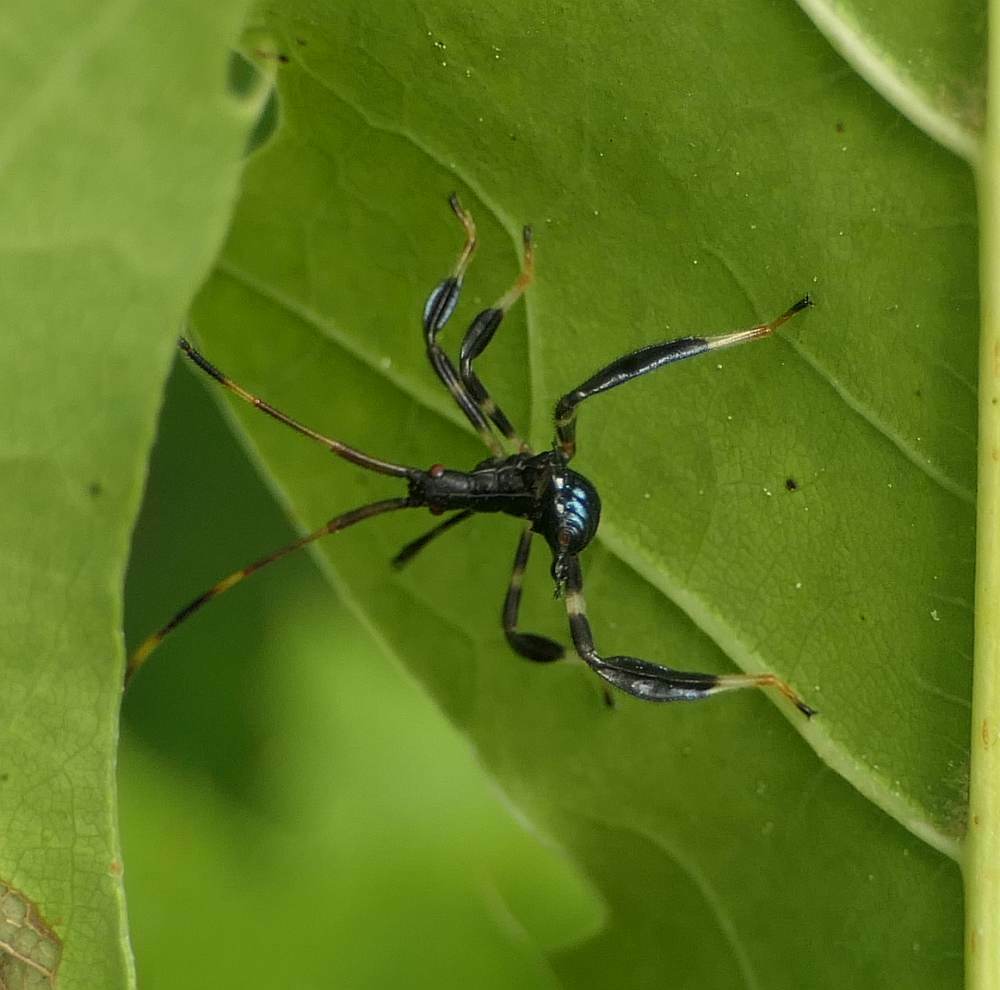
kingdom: Animalia
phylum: Arthropoda
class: Insecta
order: Hemiptera
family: Coreidae
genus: Acanthocephala
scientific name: Acanthocephala terminalis
